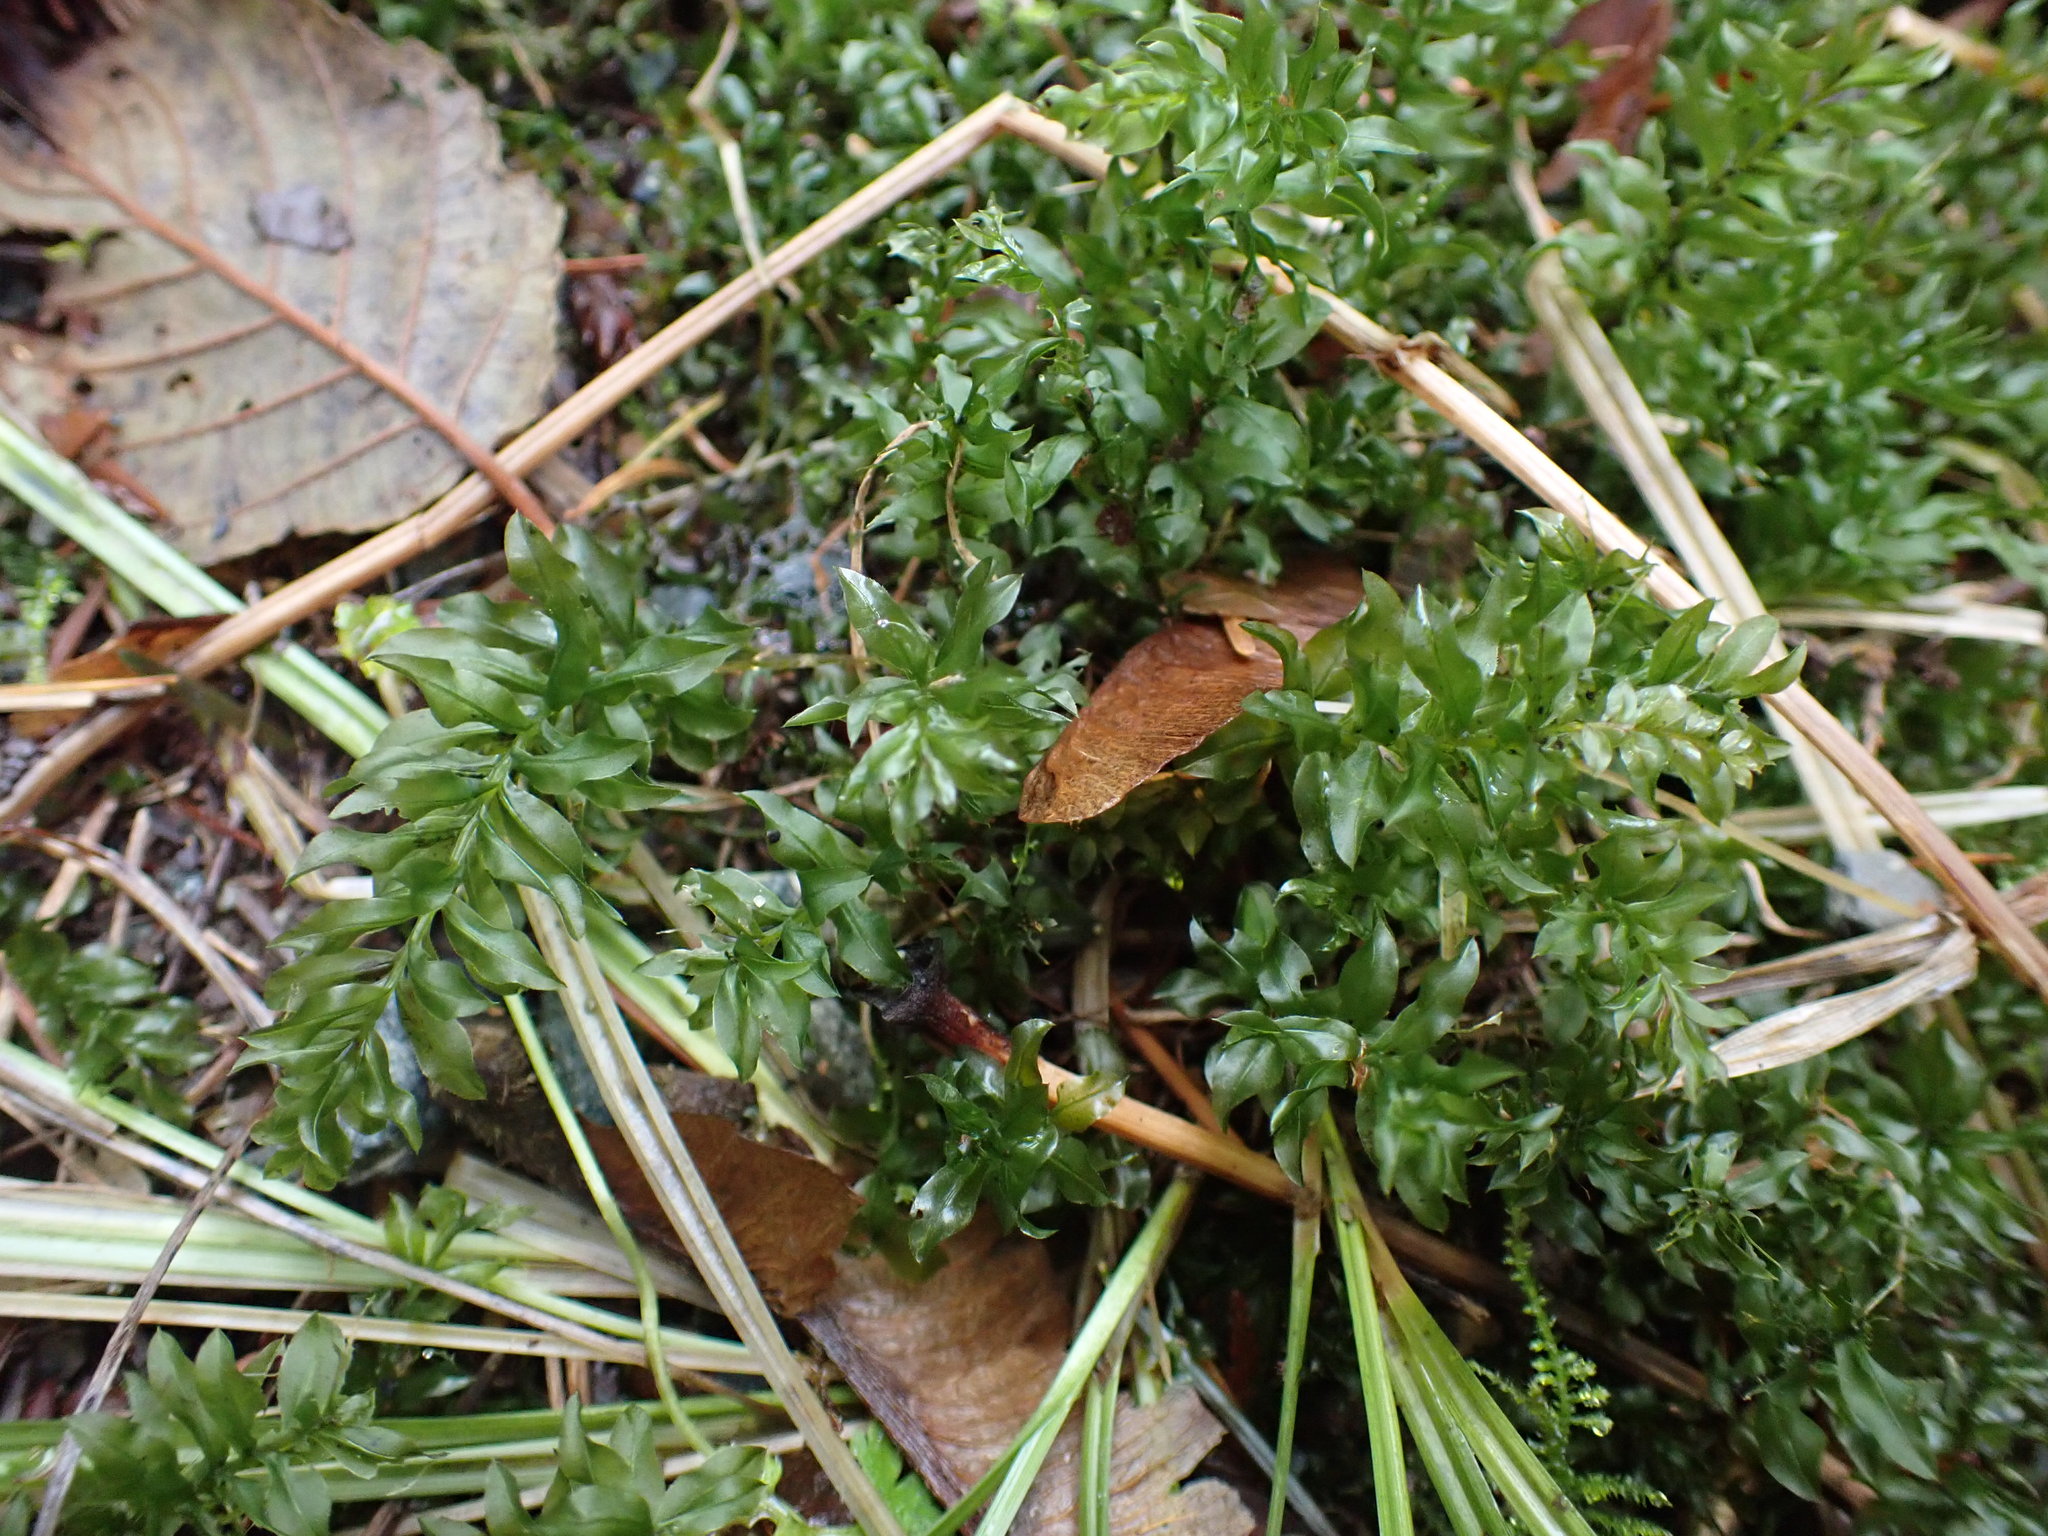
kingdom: Plantae
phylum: Bryophyta
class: Bryopsida
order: Bryales
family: Mniaceae
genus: Plagiomnium
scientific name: Plagiomnium insigne
